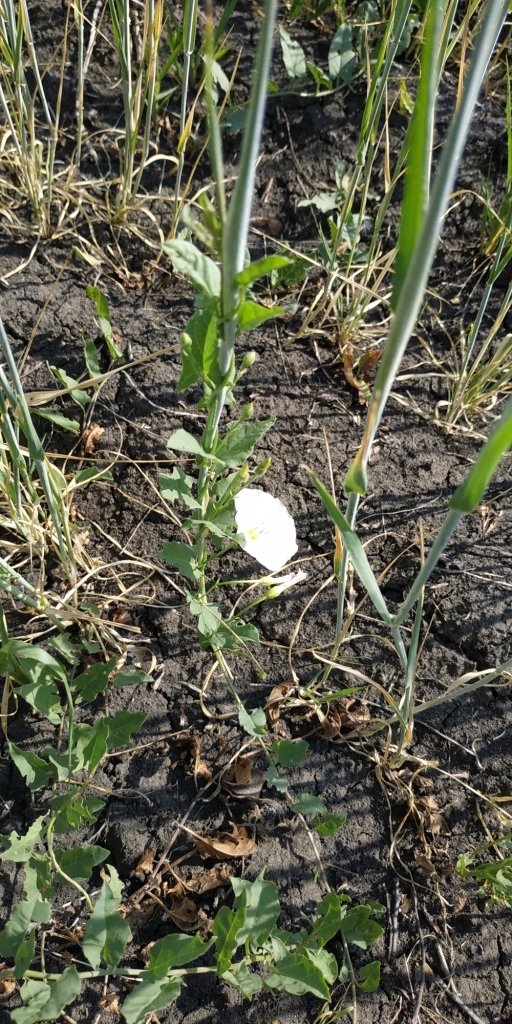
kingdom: Plantae
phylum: Tracheophyta
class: Magnoliopsida
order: Solanales
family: Convolvulaceae
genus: Convolvulus
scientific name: Convolvulus arvensis
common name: Field bindweed
